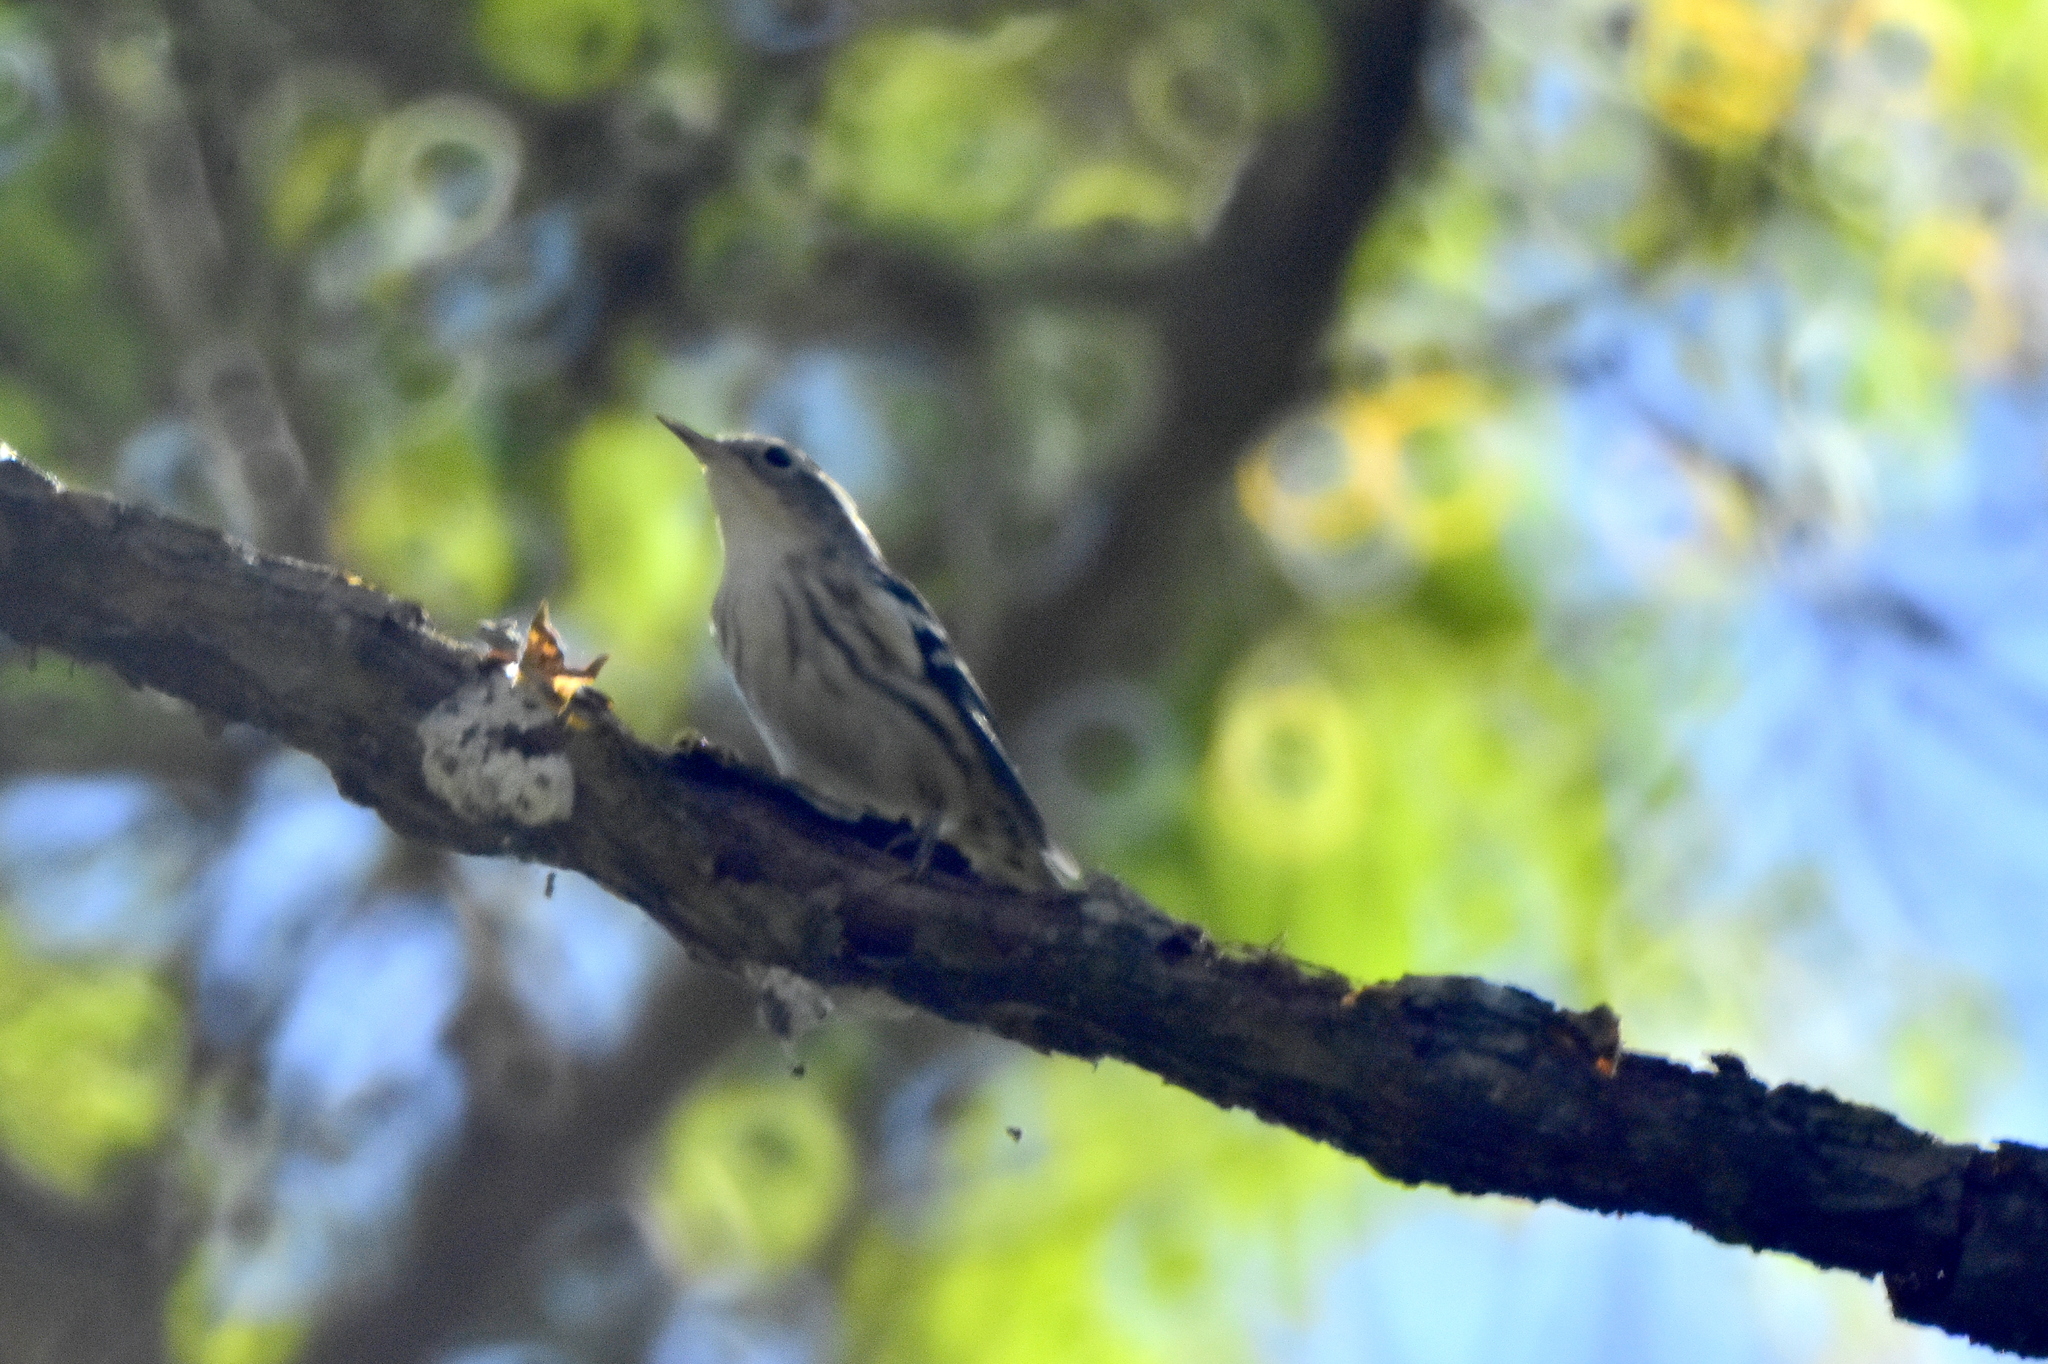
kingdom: Animalia
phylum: Chordata
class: Aves
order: Passeriformes
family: Parulidae
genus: Mniotilta
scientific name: Mniotilta varia
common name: Black-and-white warbler
